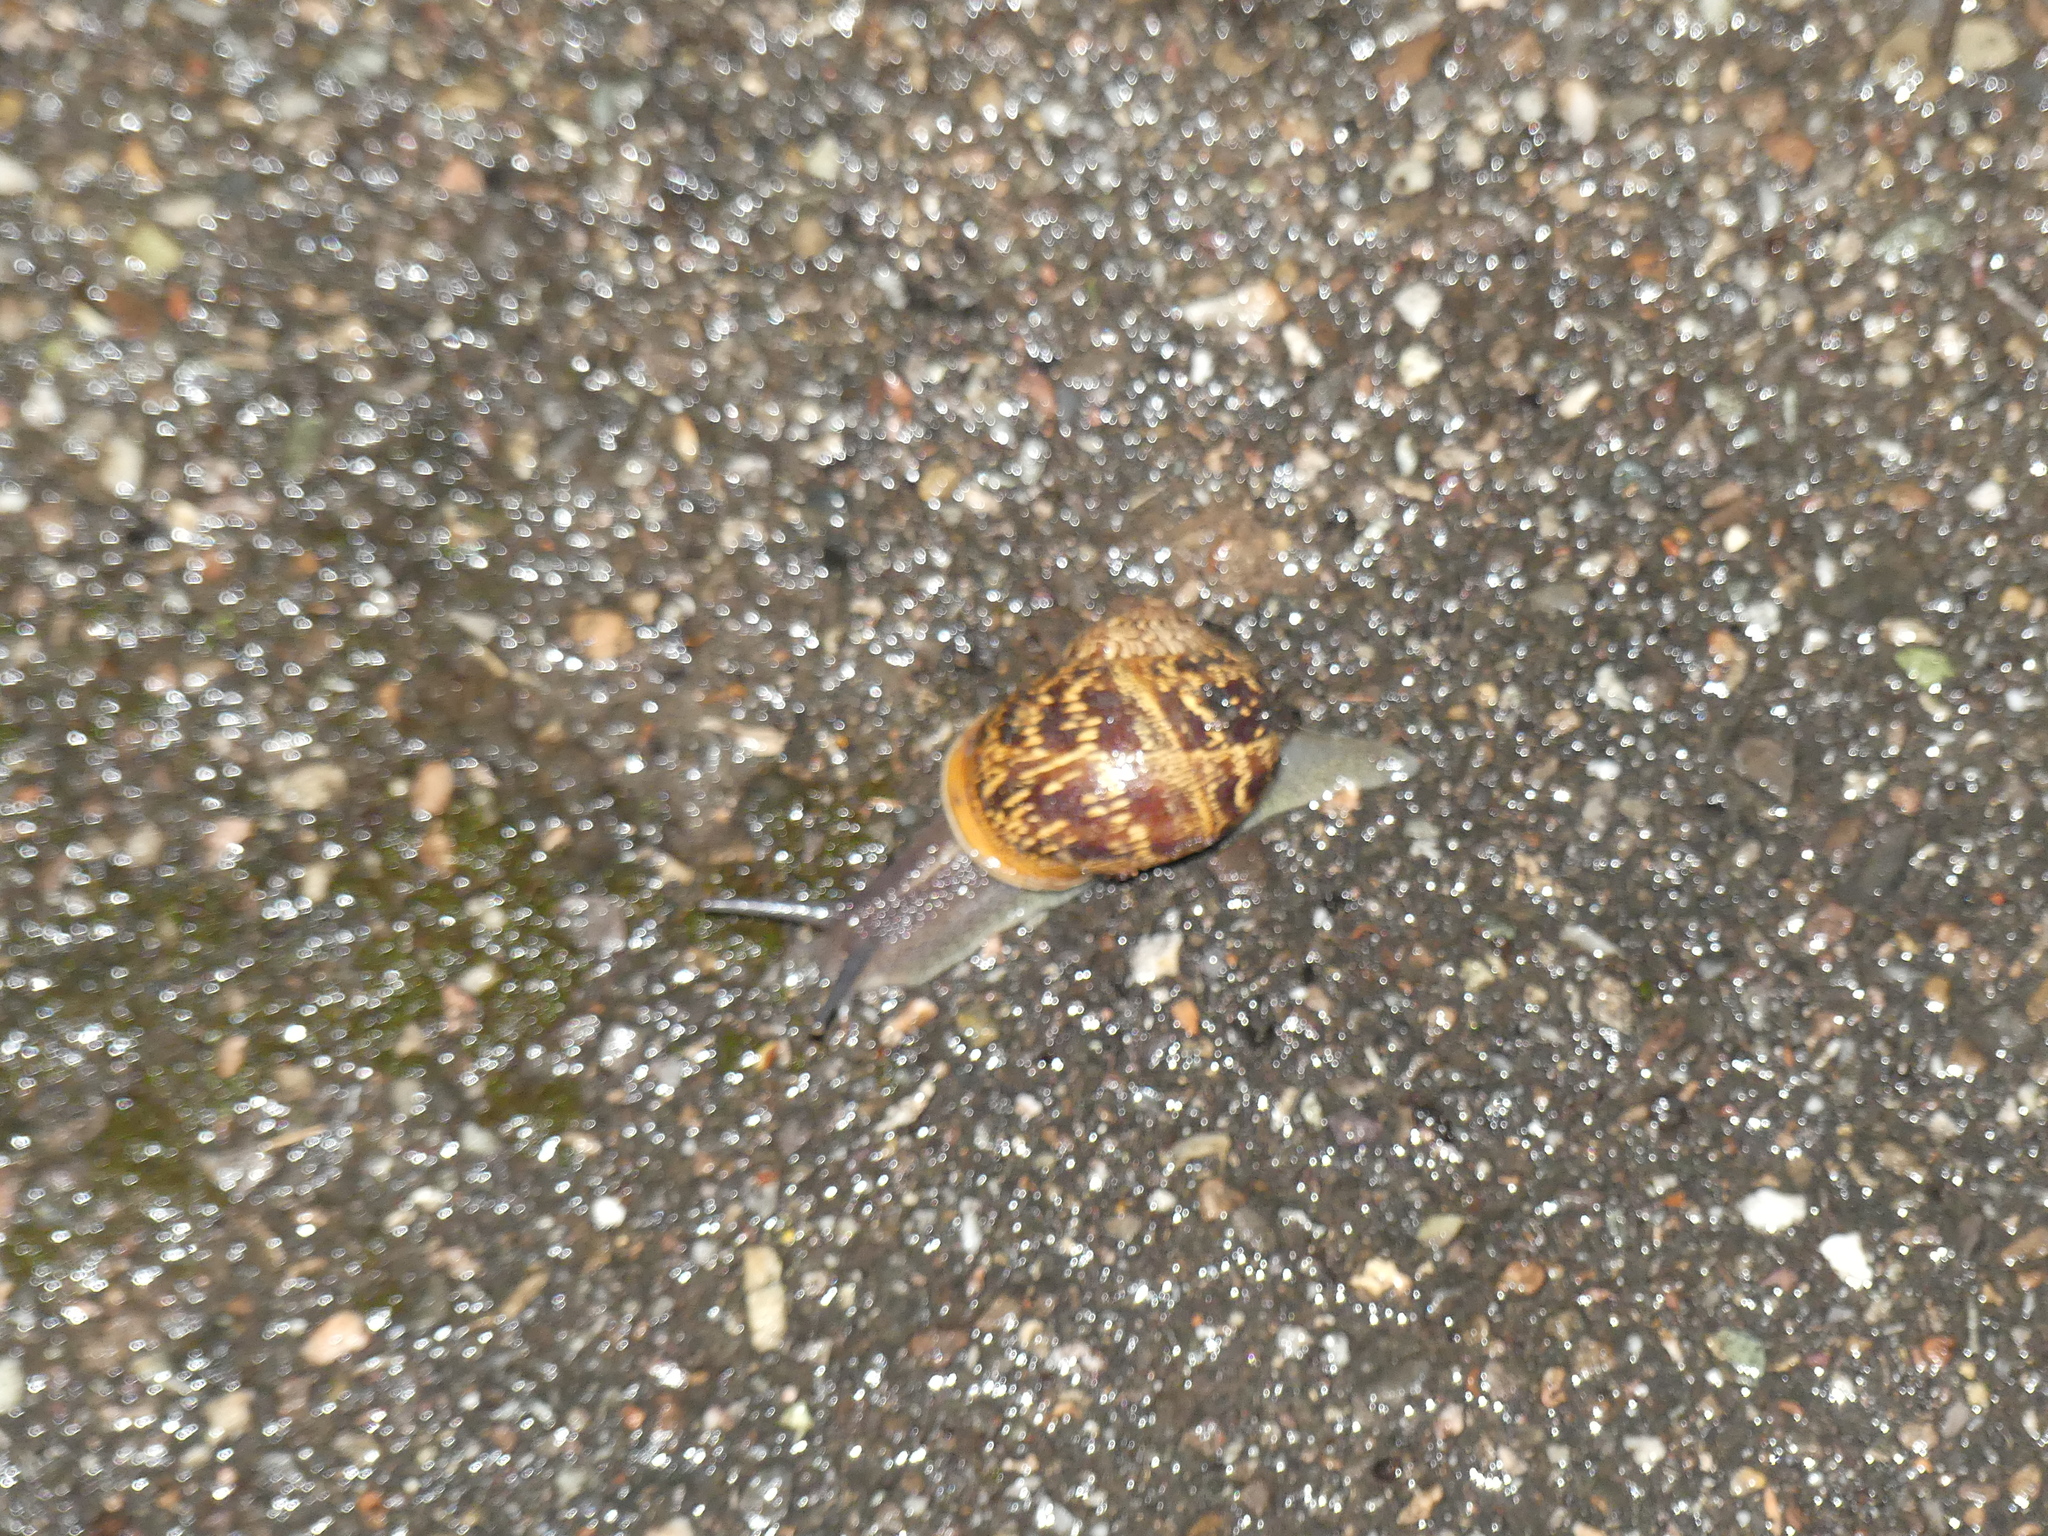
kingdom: Animalia
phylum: Mollusca
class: Gastropoda
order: Stylommatophora
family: Helicidae
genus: Cornu
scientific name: Cornu aspersum
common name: Brown garden snail
